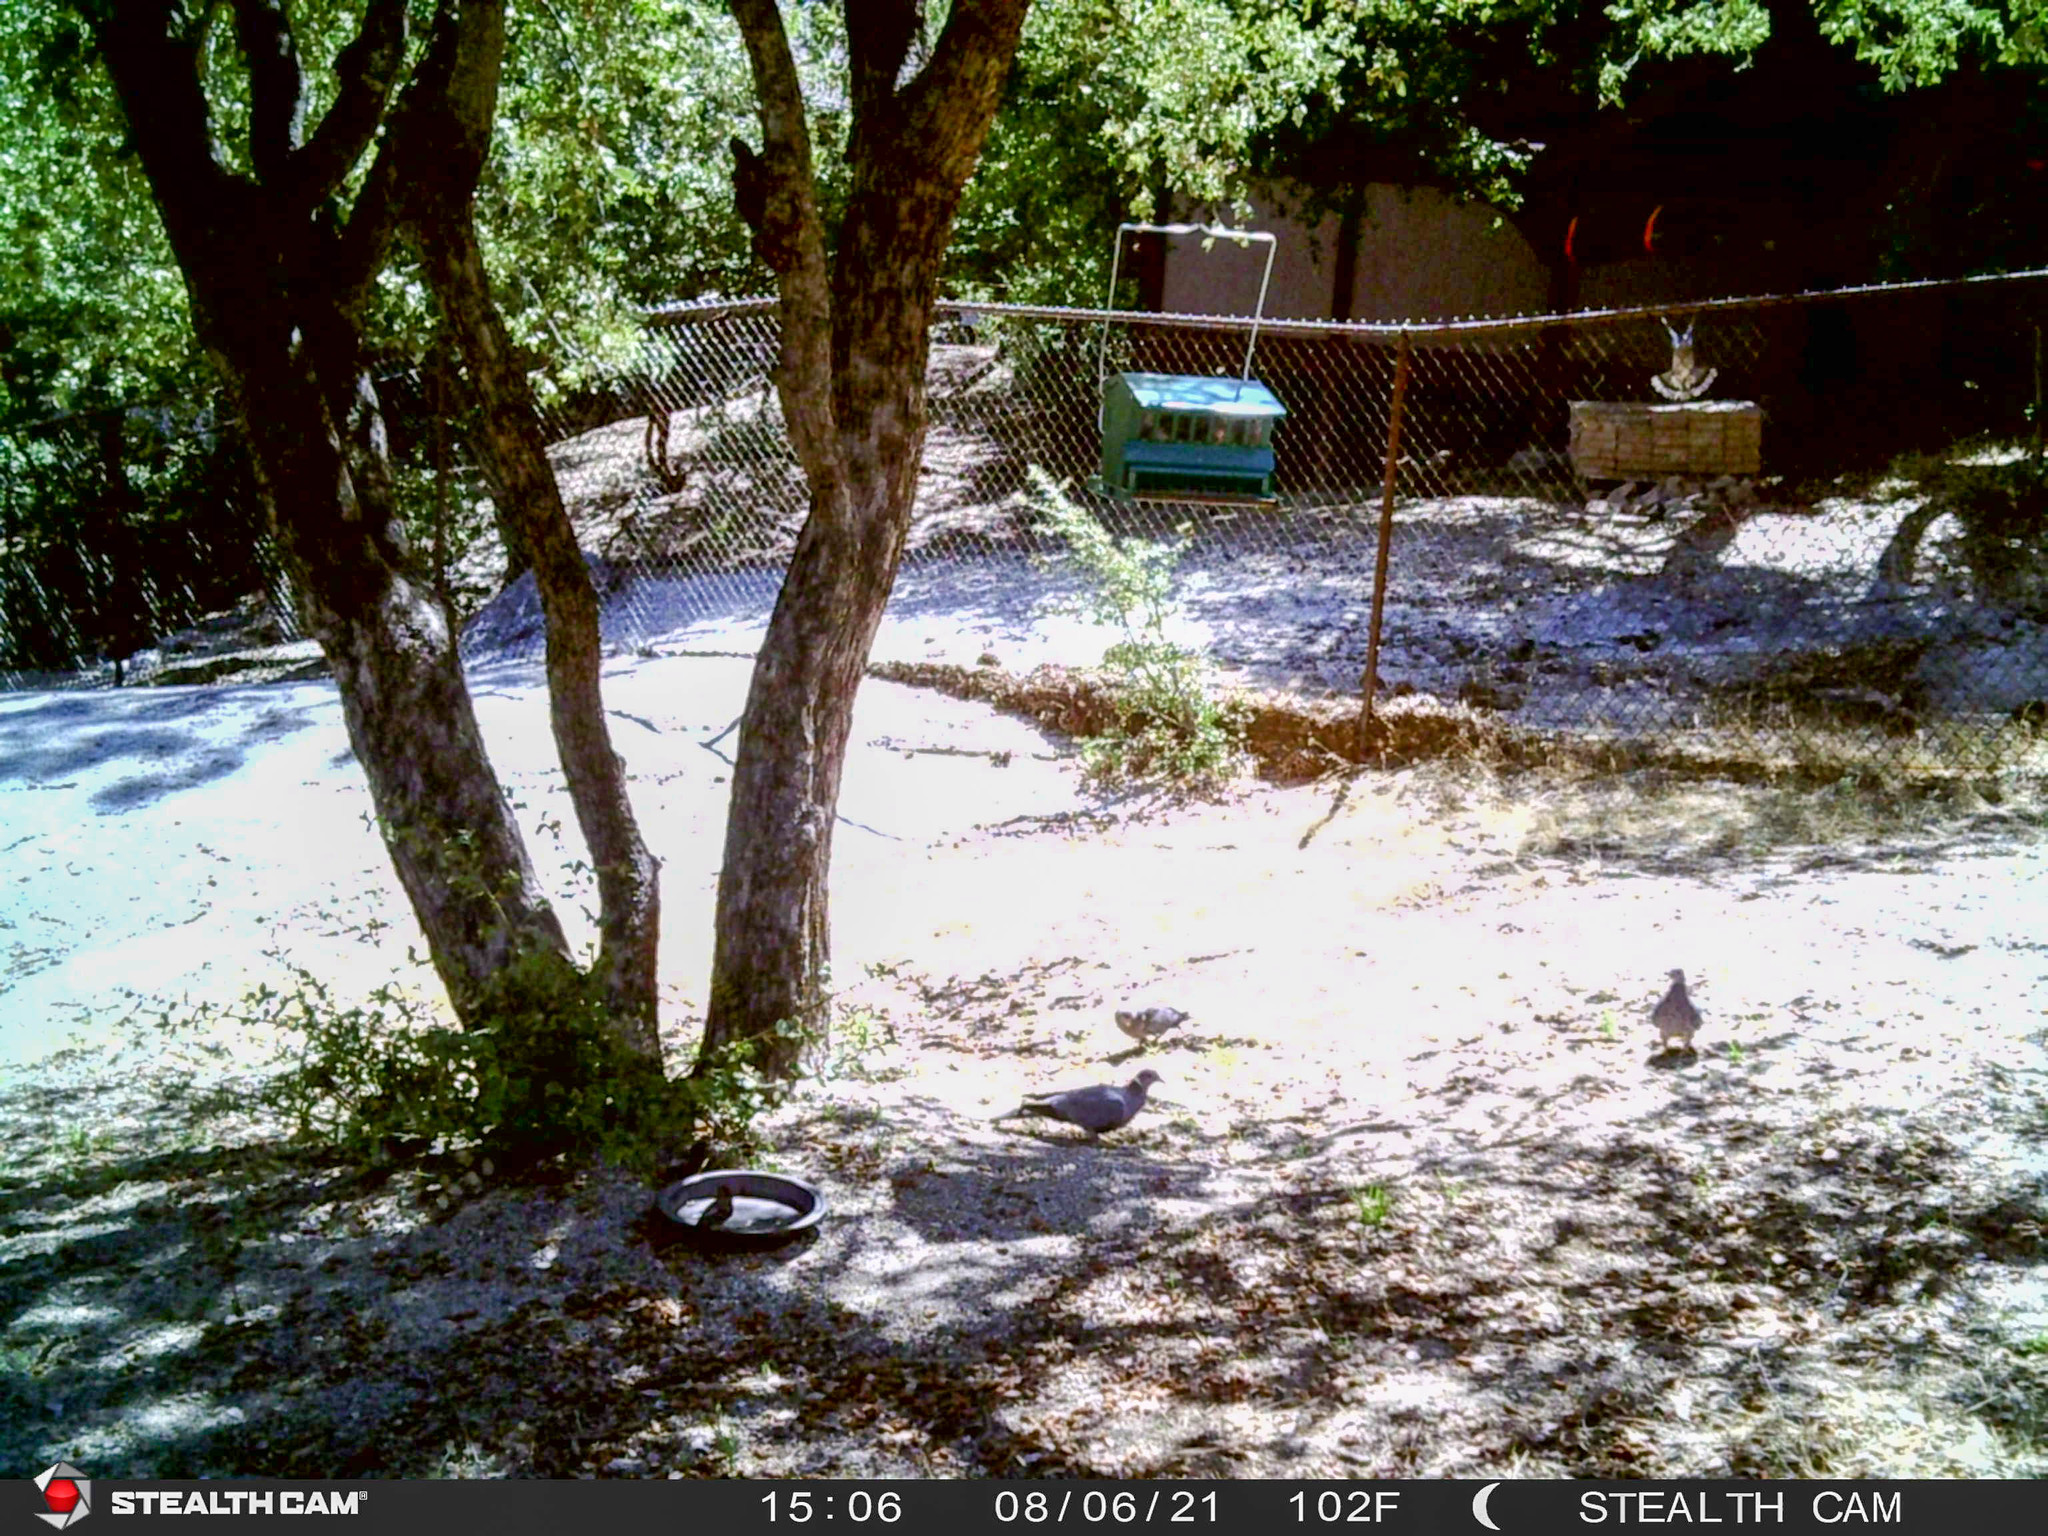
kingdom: Animalia
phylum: Chordata
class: Aves
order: Columbiformes
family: Columbidae
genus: Patagioenas
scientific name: Patagioenas fasciata
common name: Band-tailed pigeon
